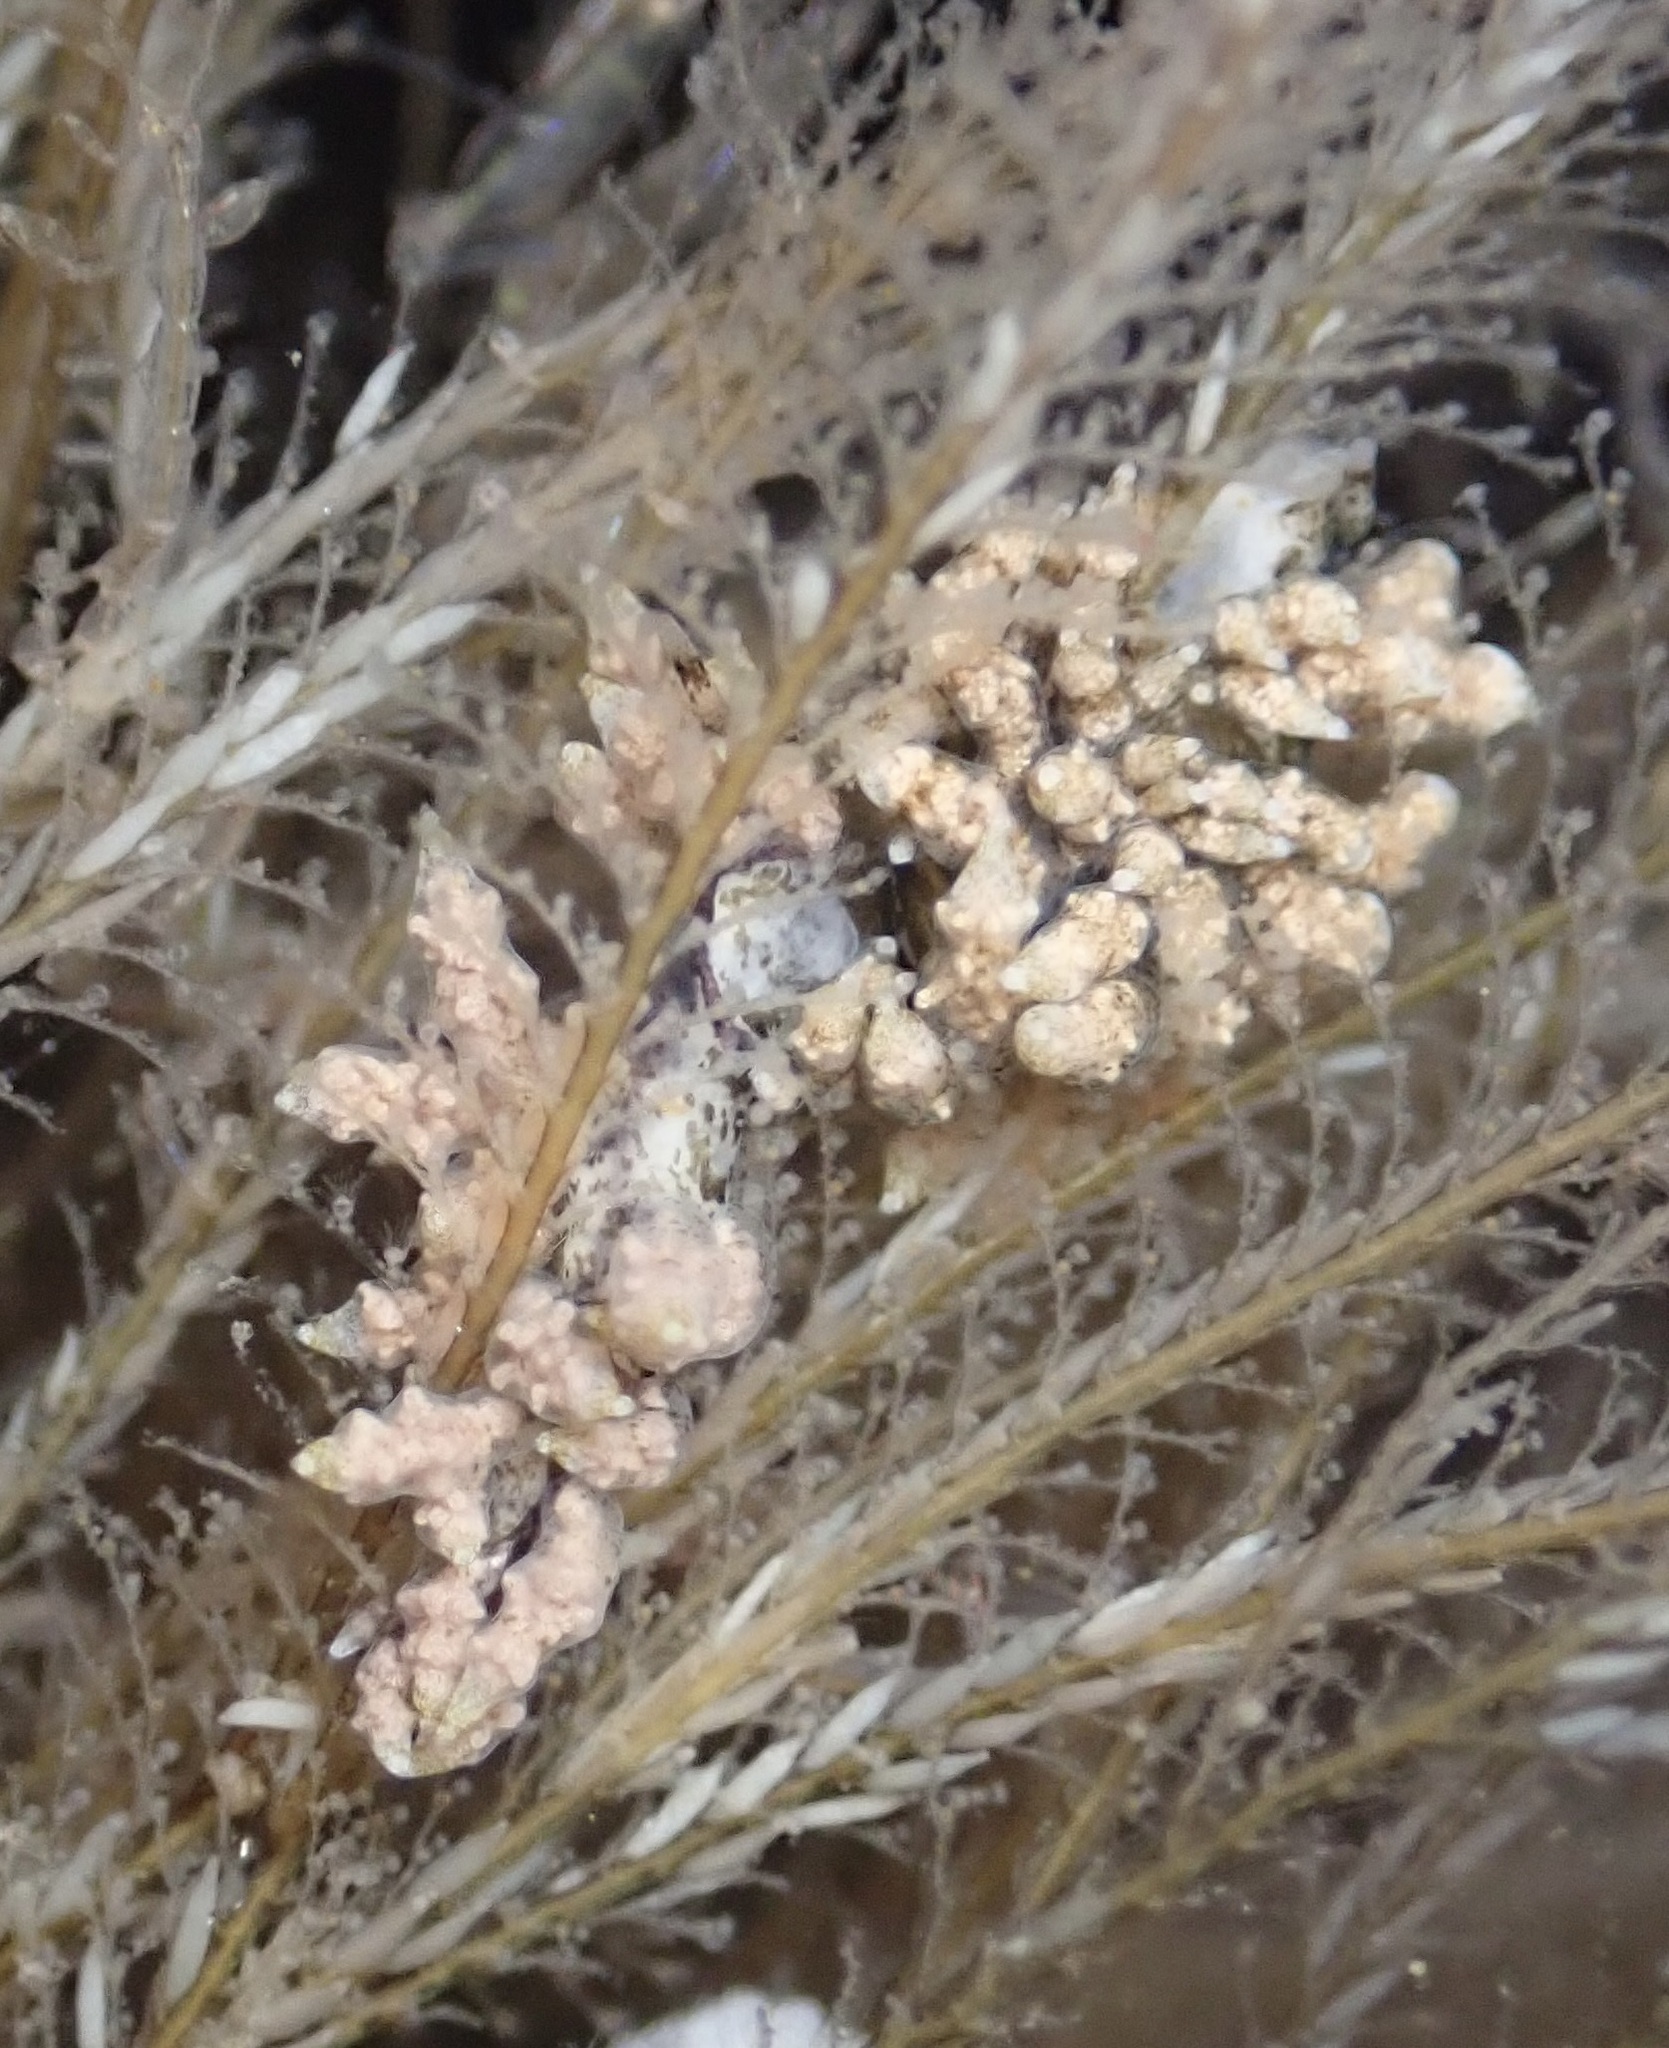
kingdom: Animalia
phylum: Mollusca
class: Gastropoda
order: Nudibranchia
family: Eubranchidae
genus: Eubranchus
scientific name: Eubranchus rustyus
